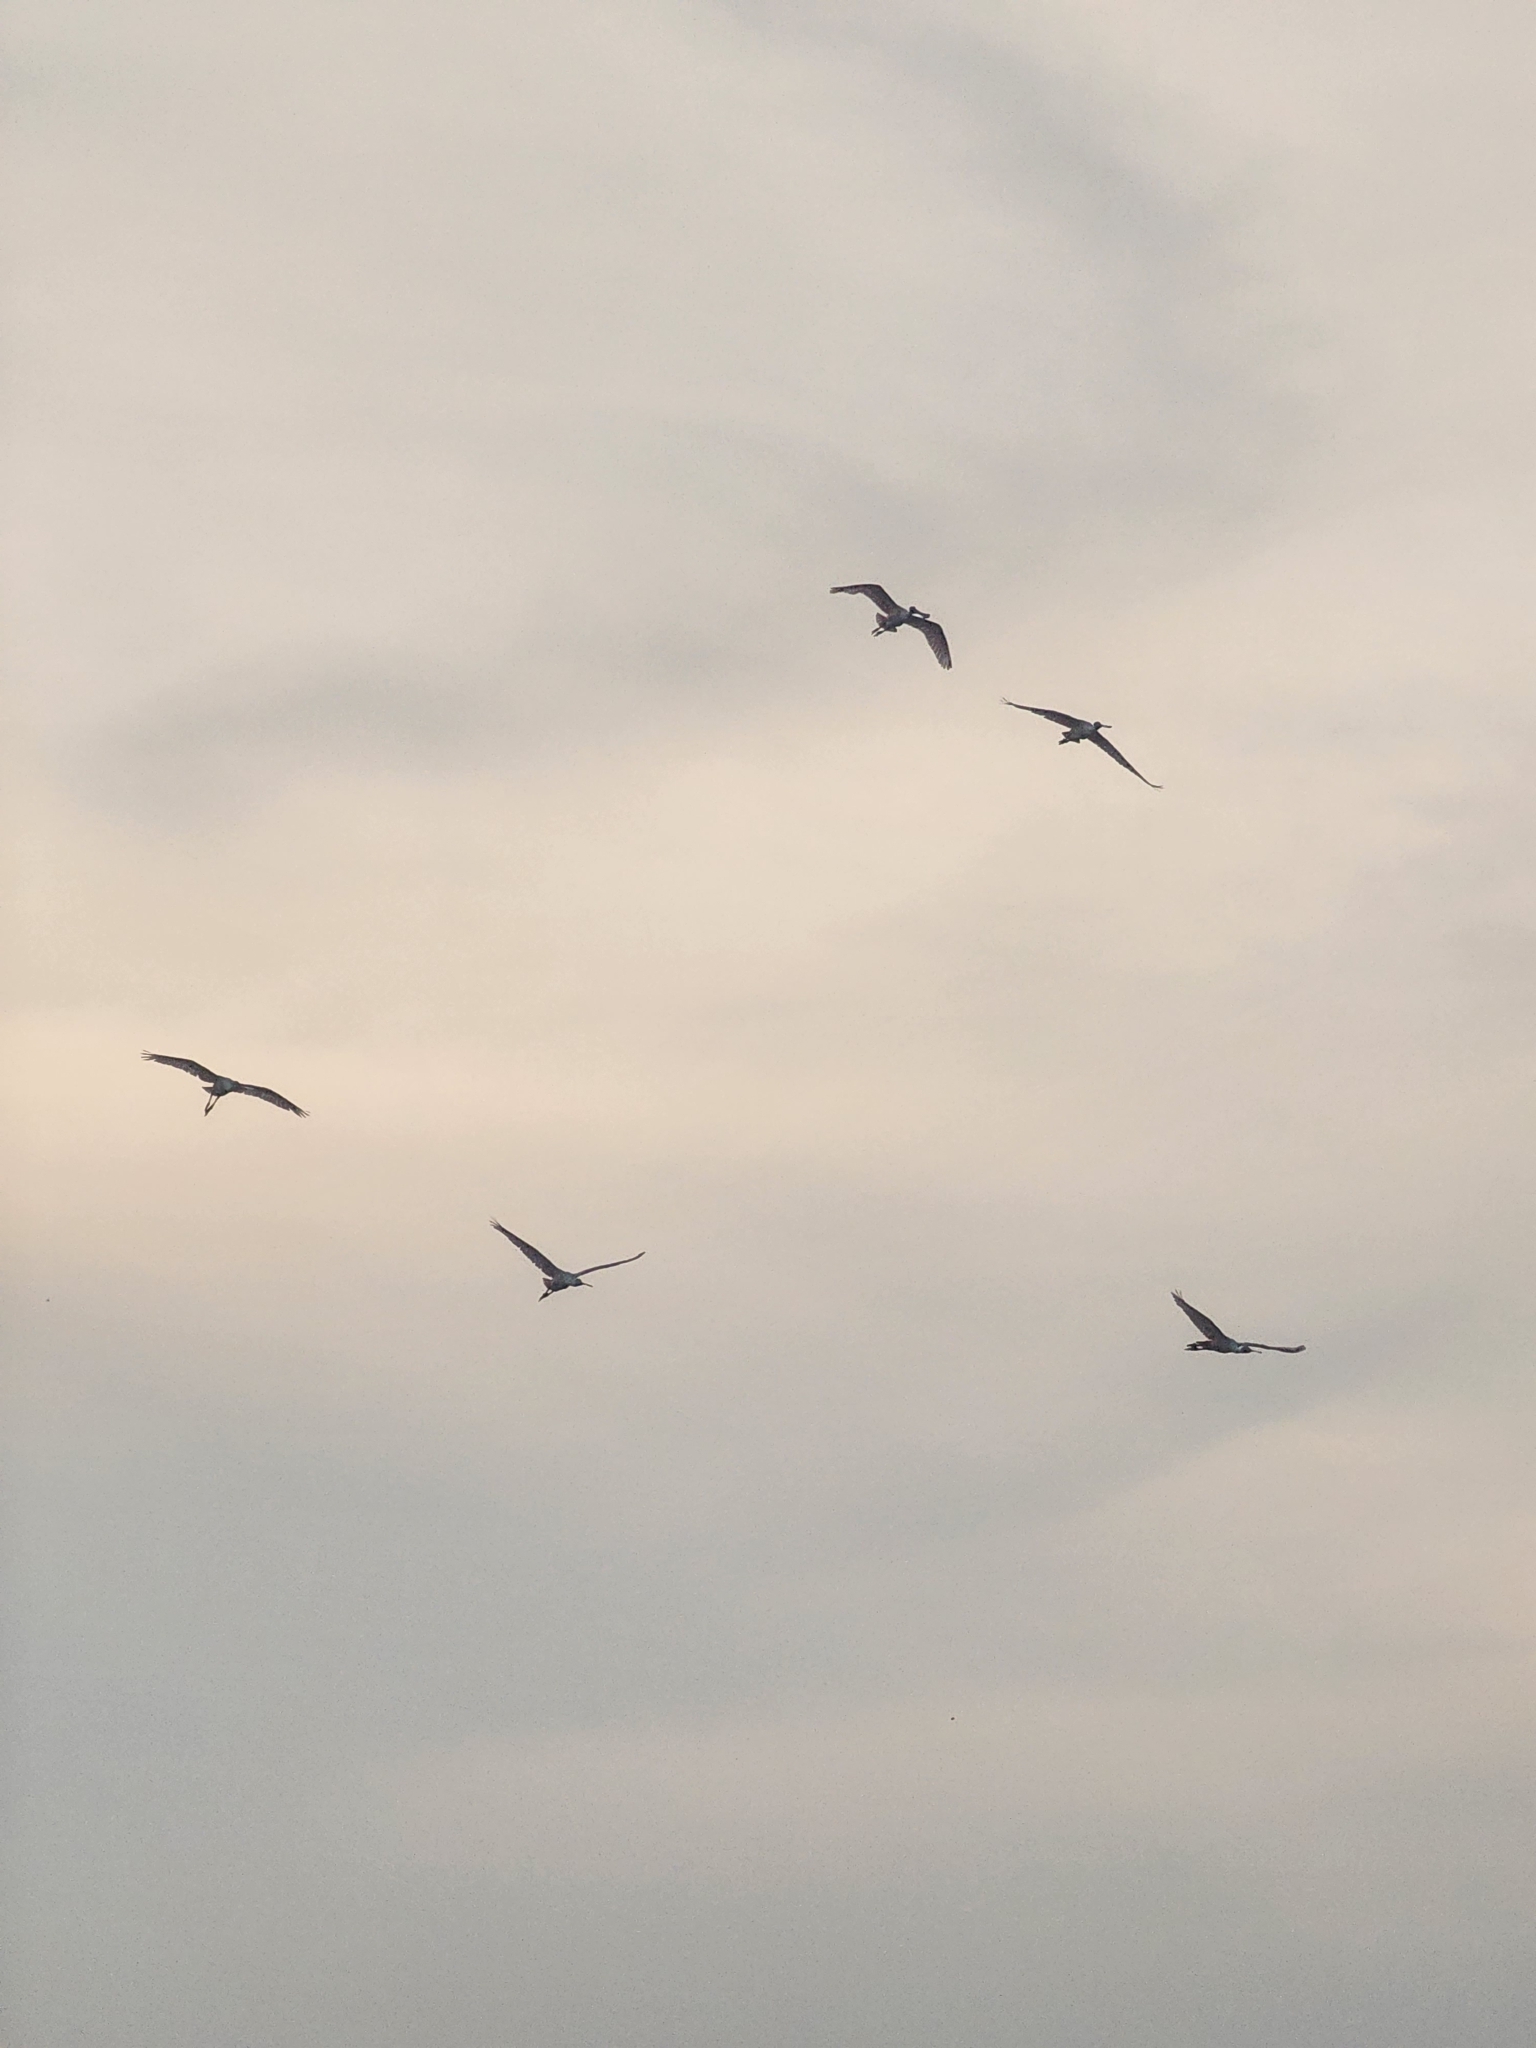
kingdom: Animalia
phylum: Chordata
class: Aves
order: Pelecaniformes
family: Threskiornithidae
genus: Platalea
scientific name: Platalea ajaja
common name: Roseate spoonbill
